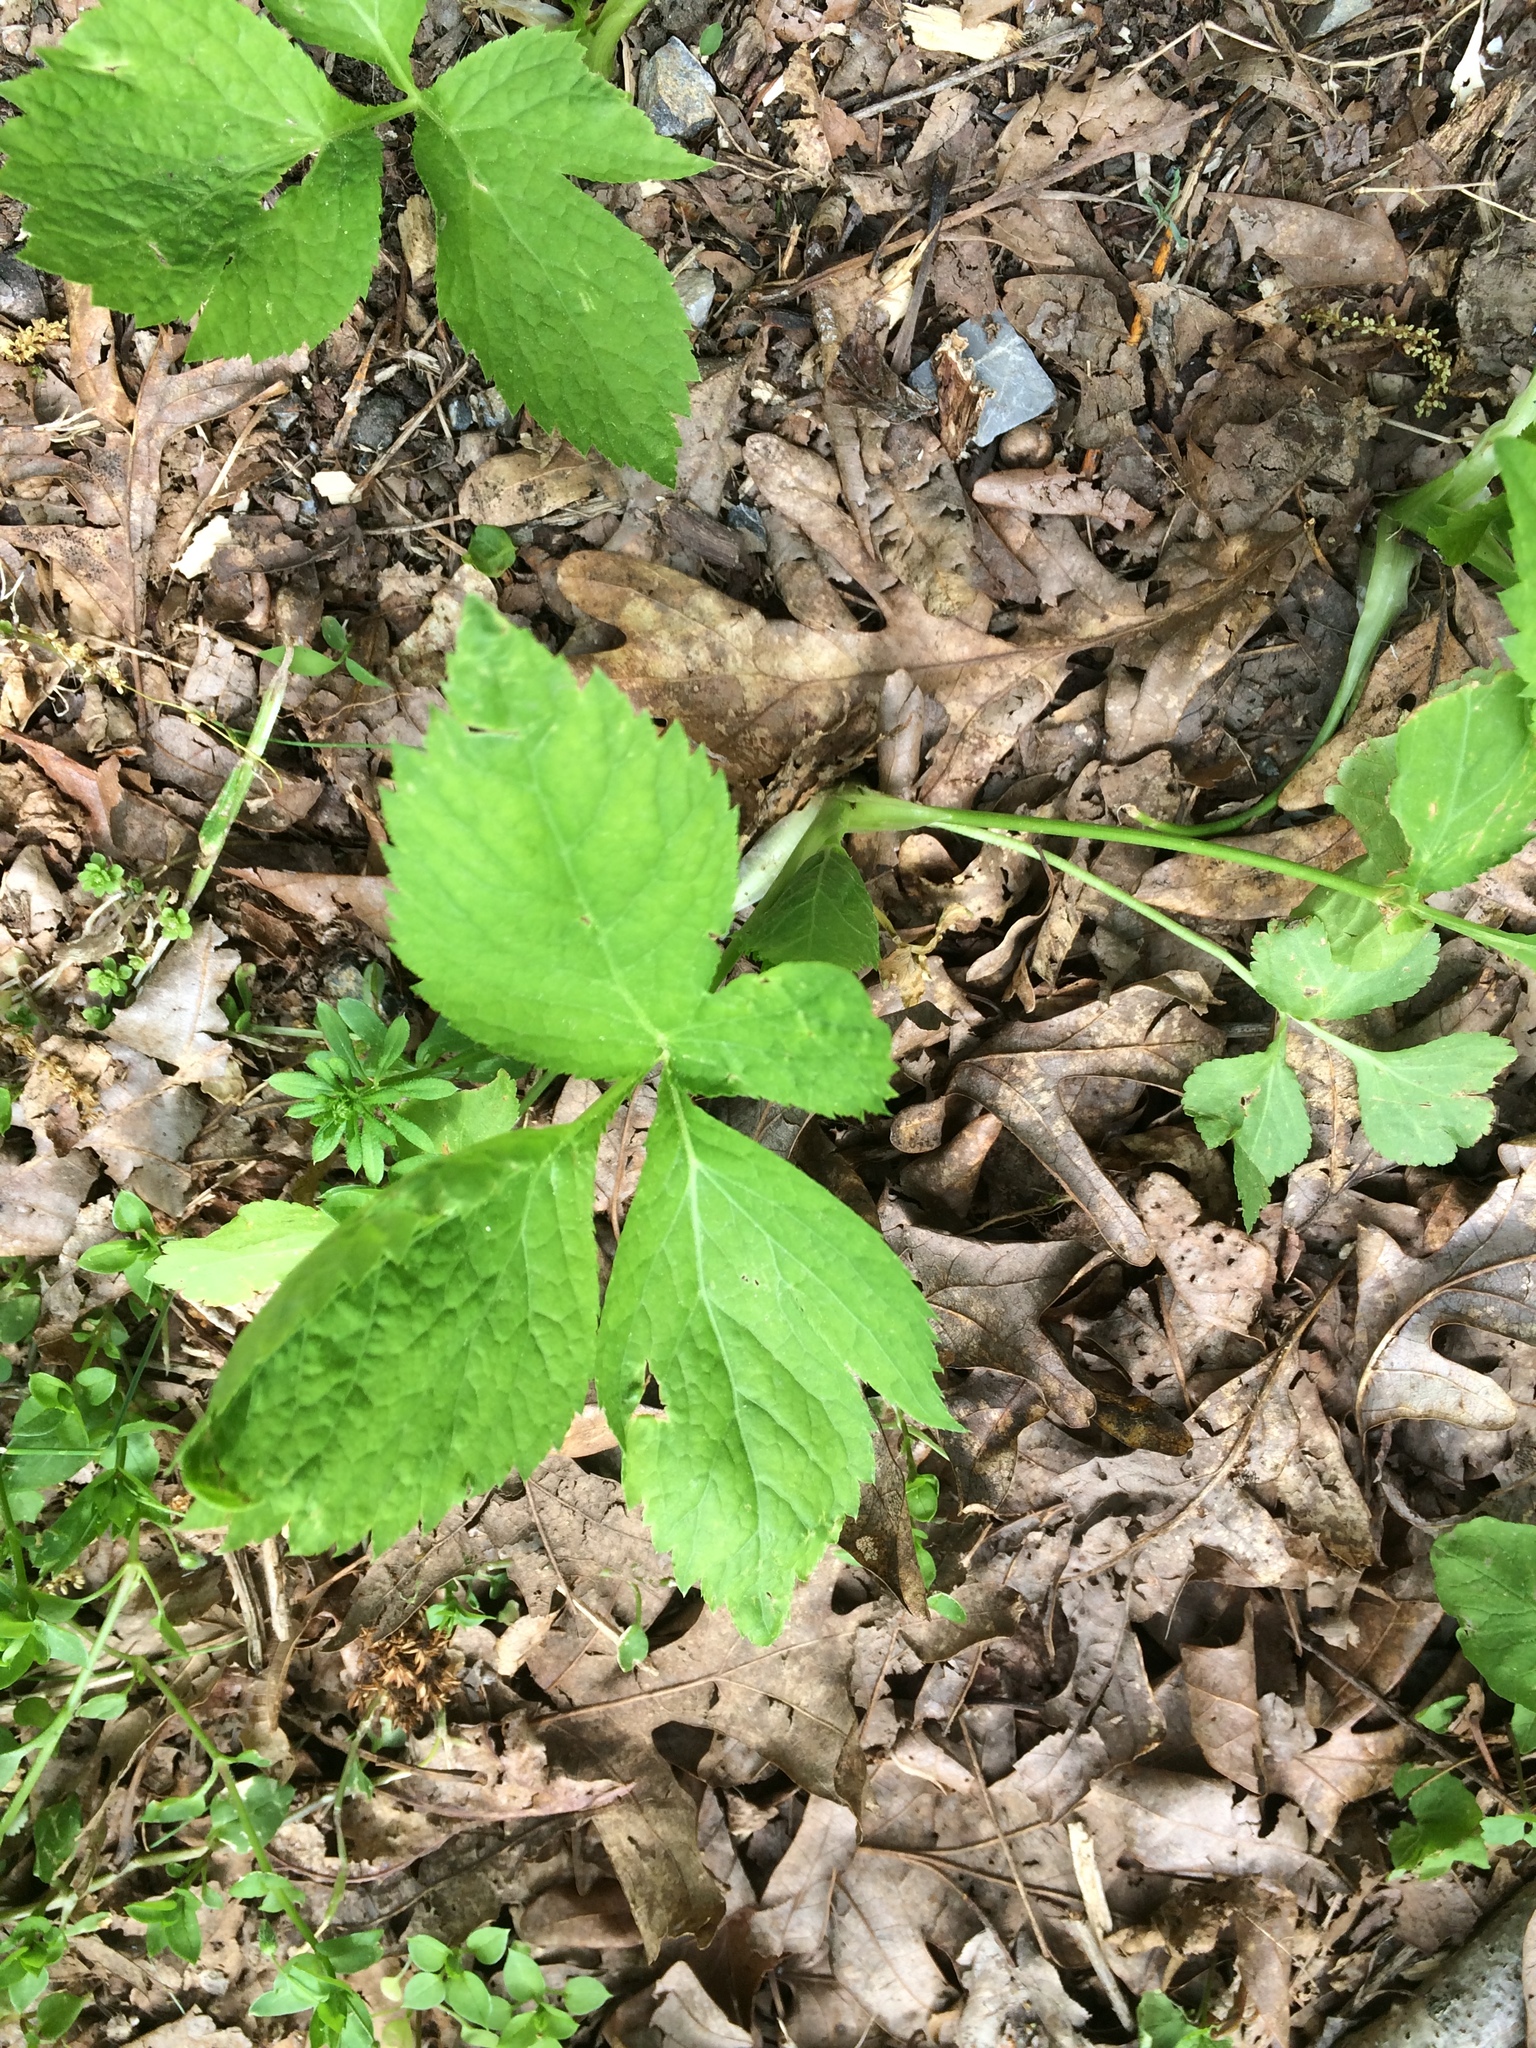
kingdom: Plantae
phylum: Tracheophyta
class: Magnoliopsida
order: Apiales
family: Apiaceae
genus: Cryptotaenia
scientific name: Cryptotaenia canadensis
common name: Honewort
